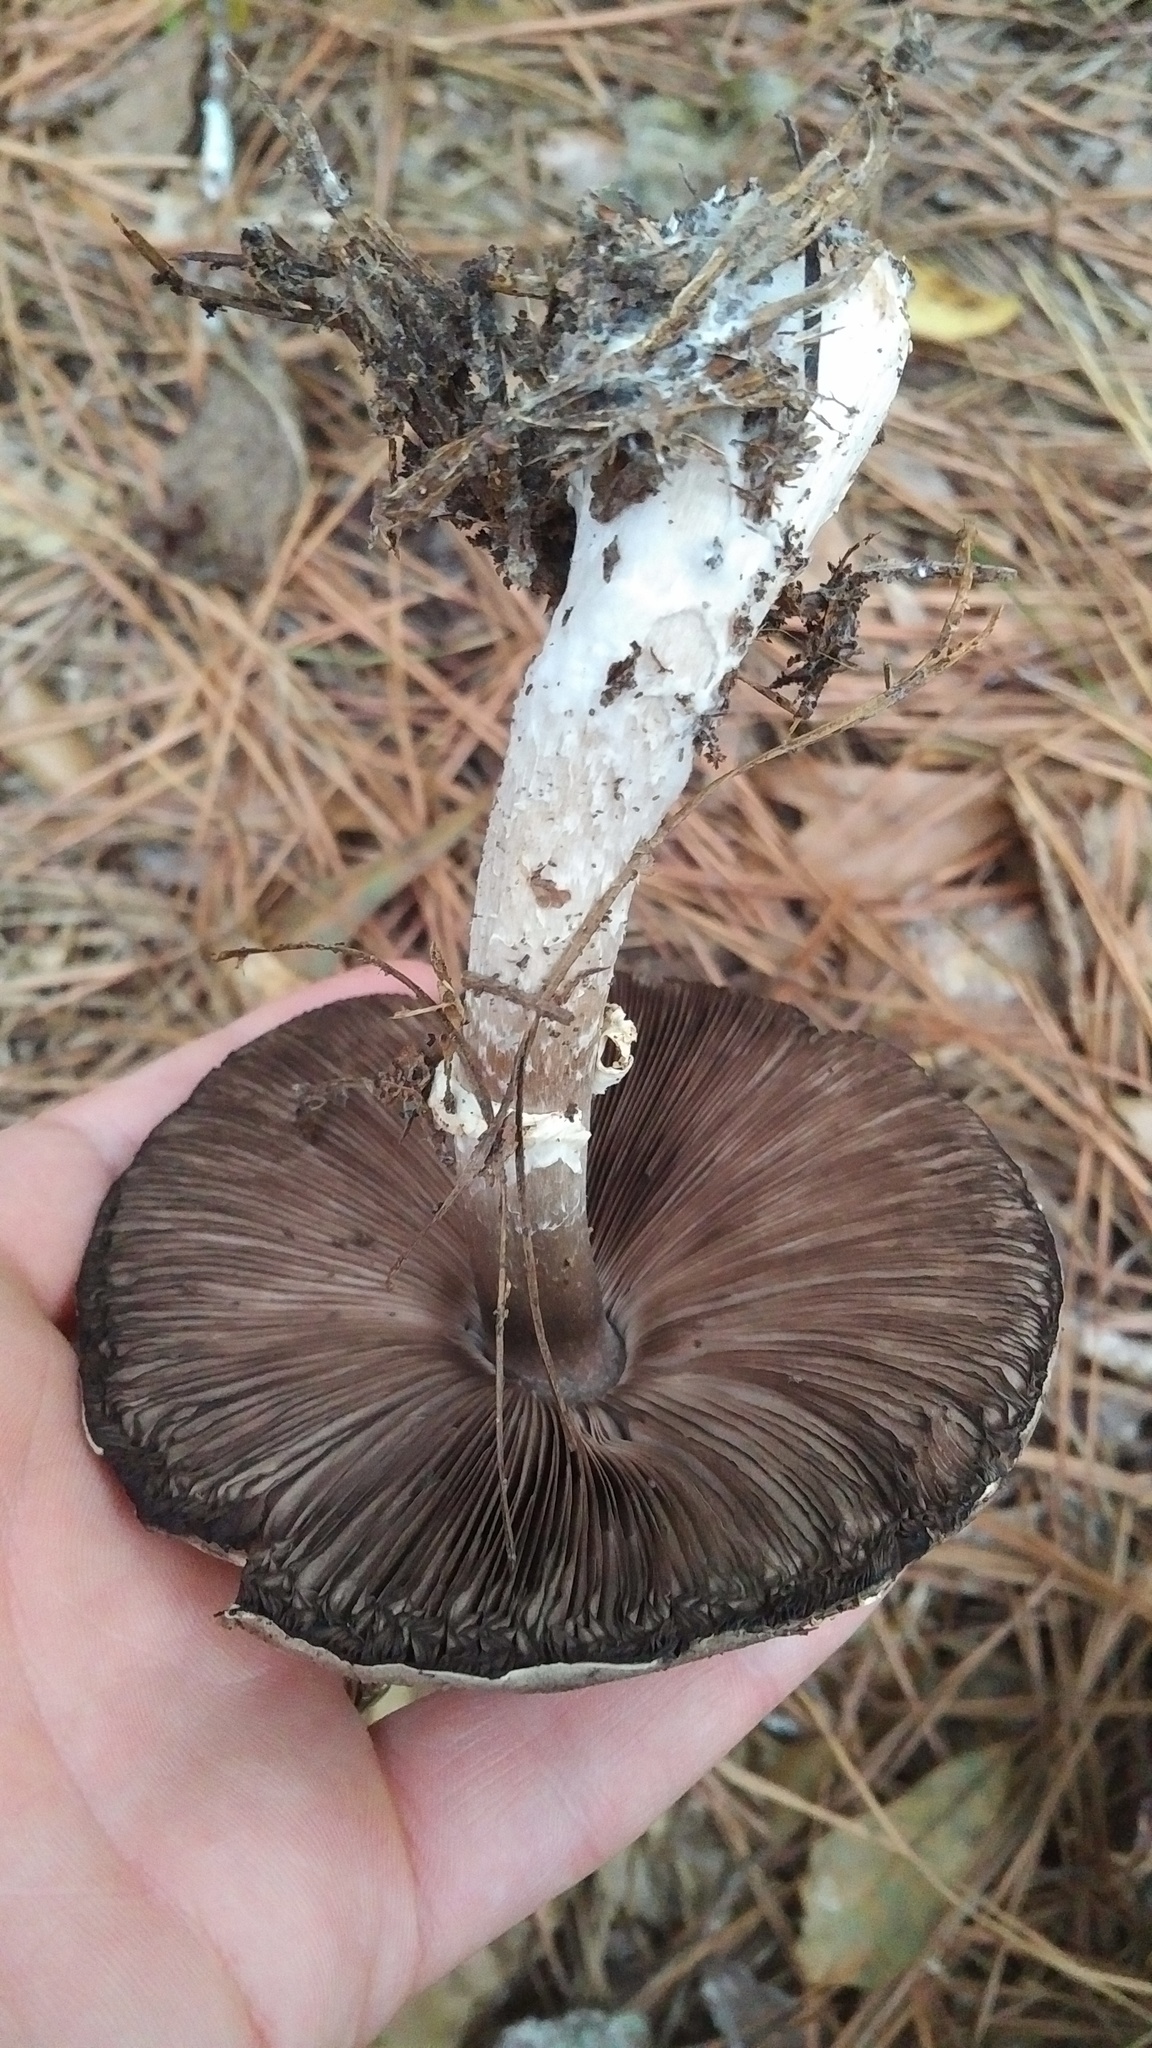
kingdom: Fungi
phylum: Basidiomycota
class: Agaricomycetes
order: Agaricales
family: Agaricaceae
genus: Agaricus
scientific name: Agaricus vinosobrunneofumidus
